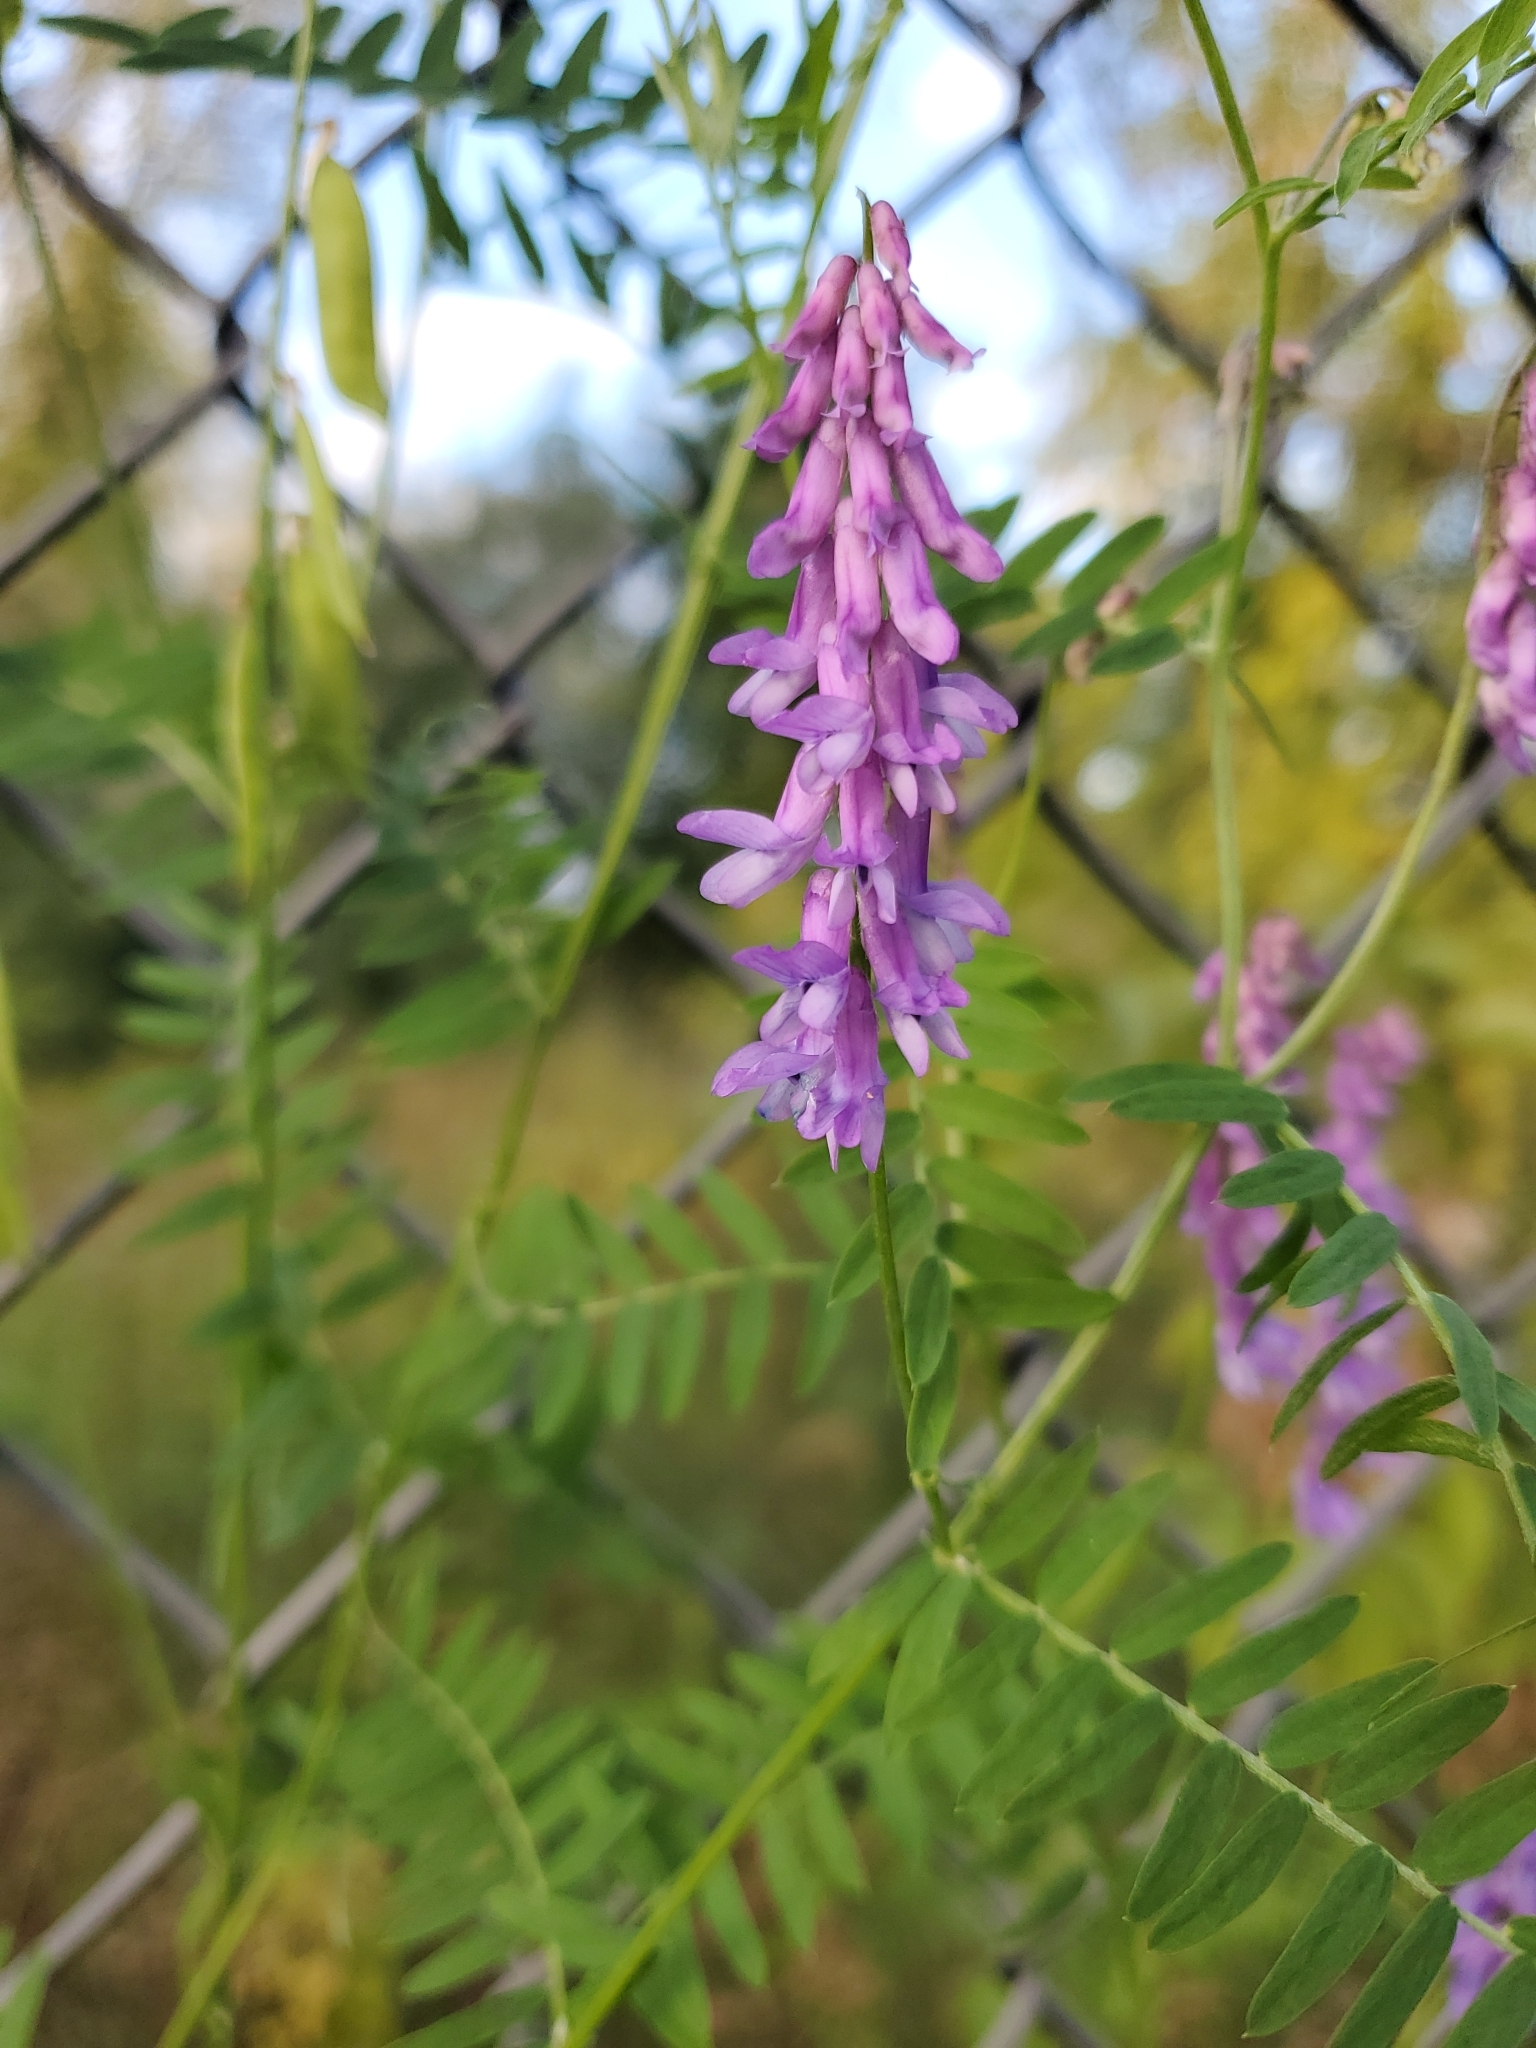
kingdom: Plantae
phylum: Tracheophyta
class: Magnoliopsida
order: Fabales
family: Fabaceae
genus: Vicia
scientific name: Vicia cracca
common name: Bird vetch
